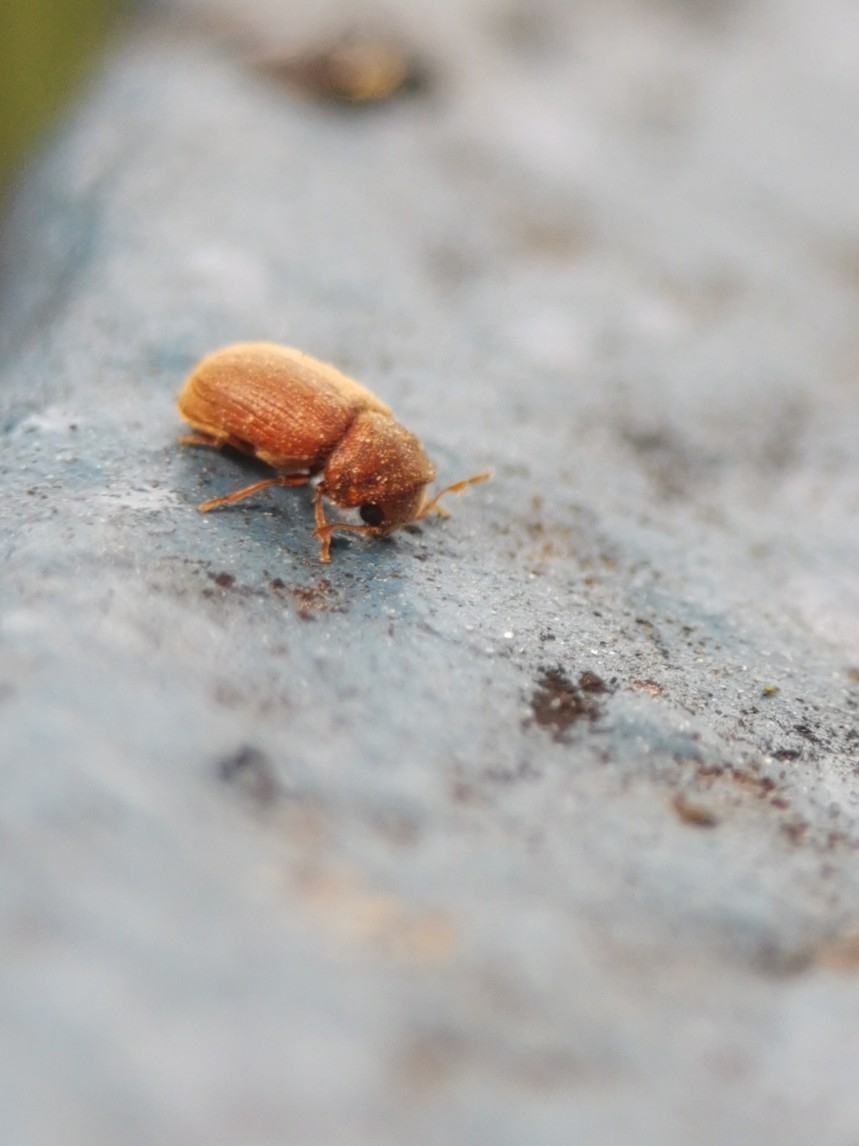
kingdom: Animalia
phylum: Arthropoda
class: Insecta
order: Coleoptera
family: Anobiidae
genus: Stegobium
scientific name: Stegobium paniceum
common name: Drugstore beetle
